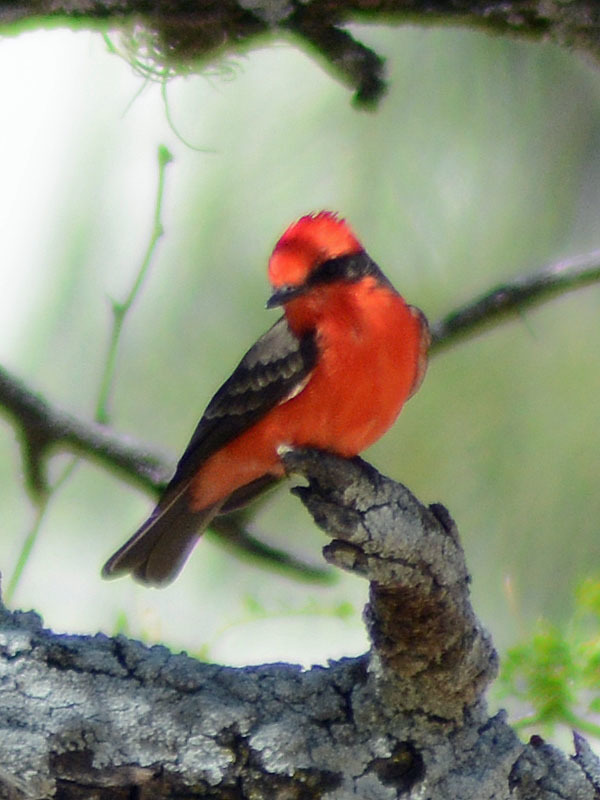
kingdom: Animalia
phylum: Chordata
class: Aves
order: Passeriformes
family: Tyrannidae
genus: Pyrocephalus
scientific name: Pyrocephalus rubinus
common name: Vermilion flycatcher
